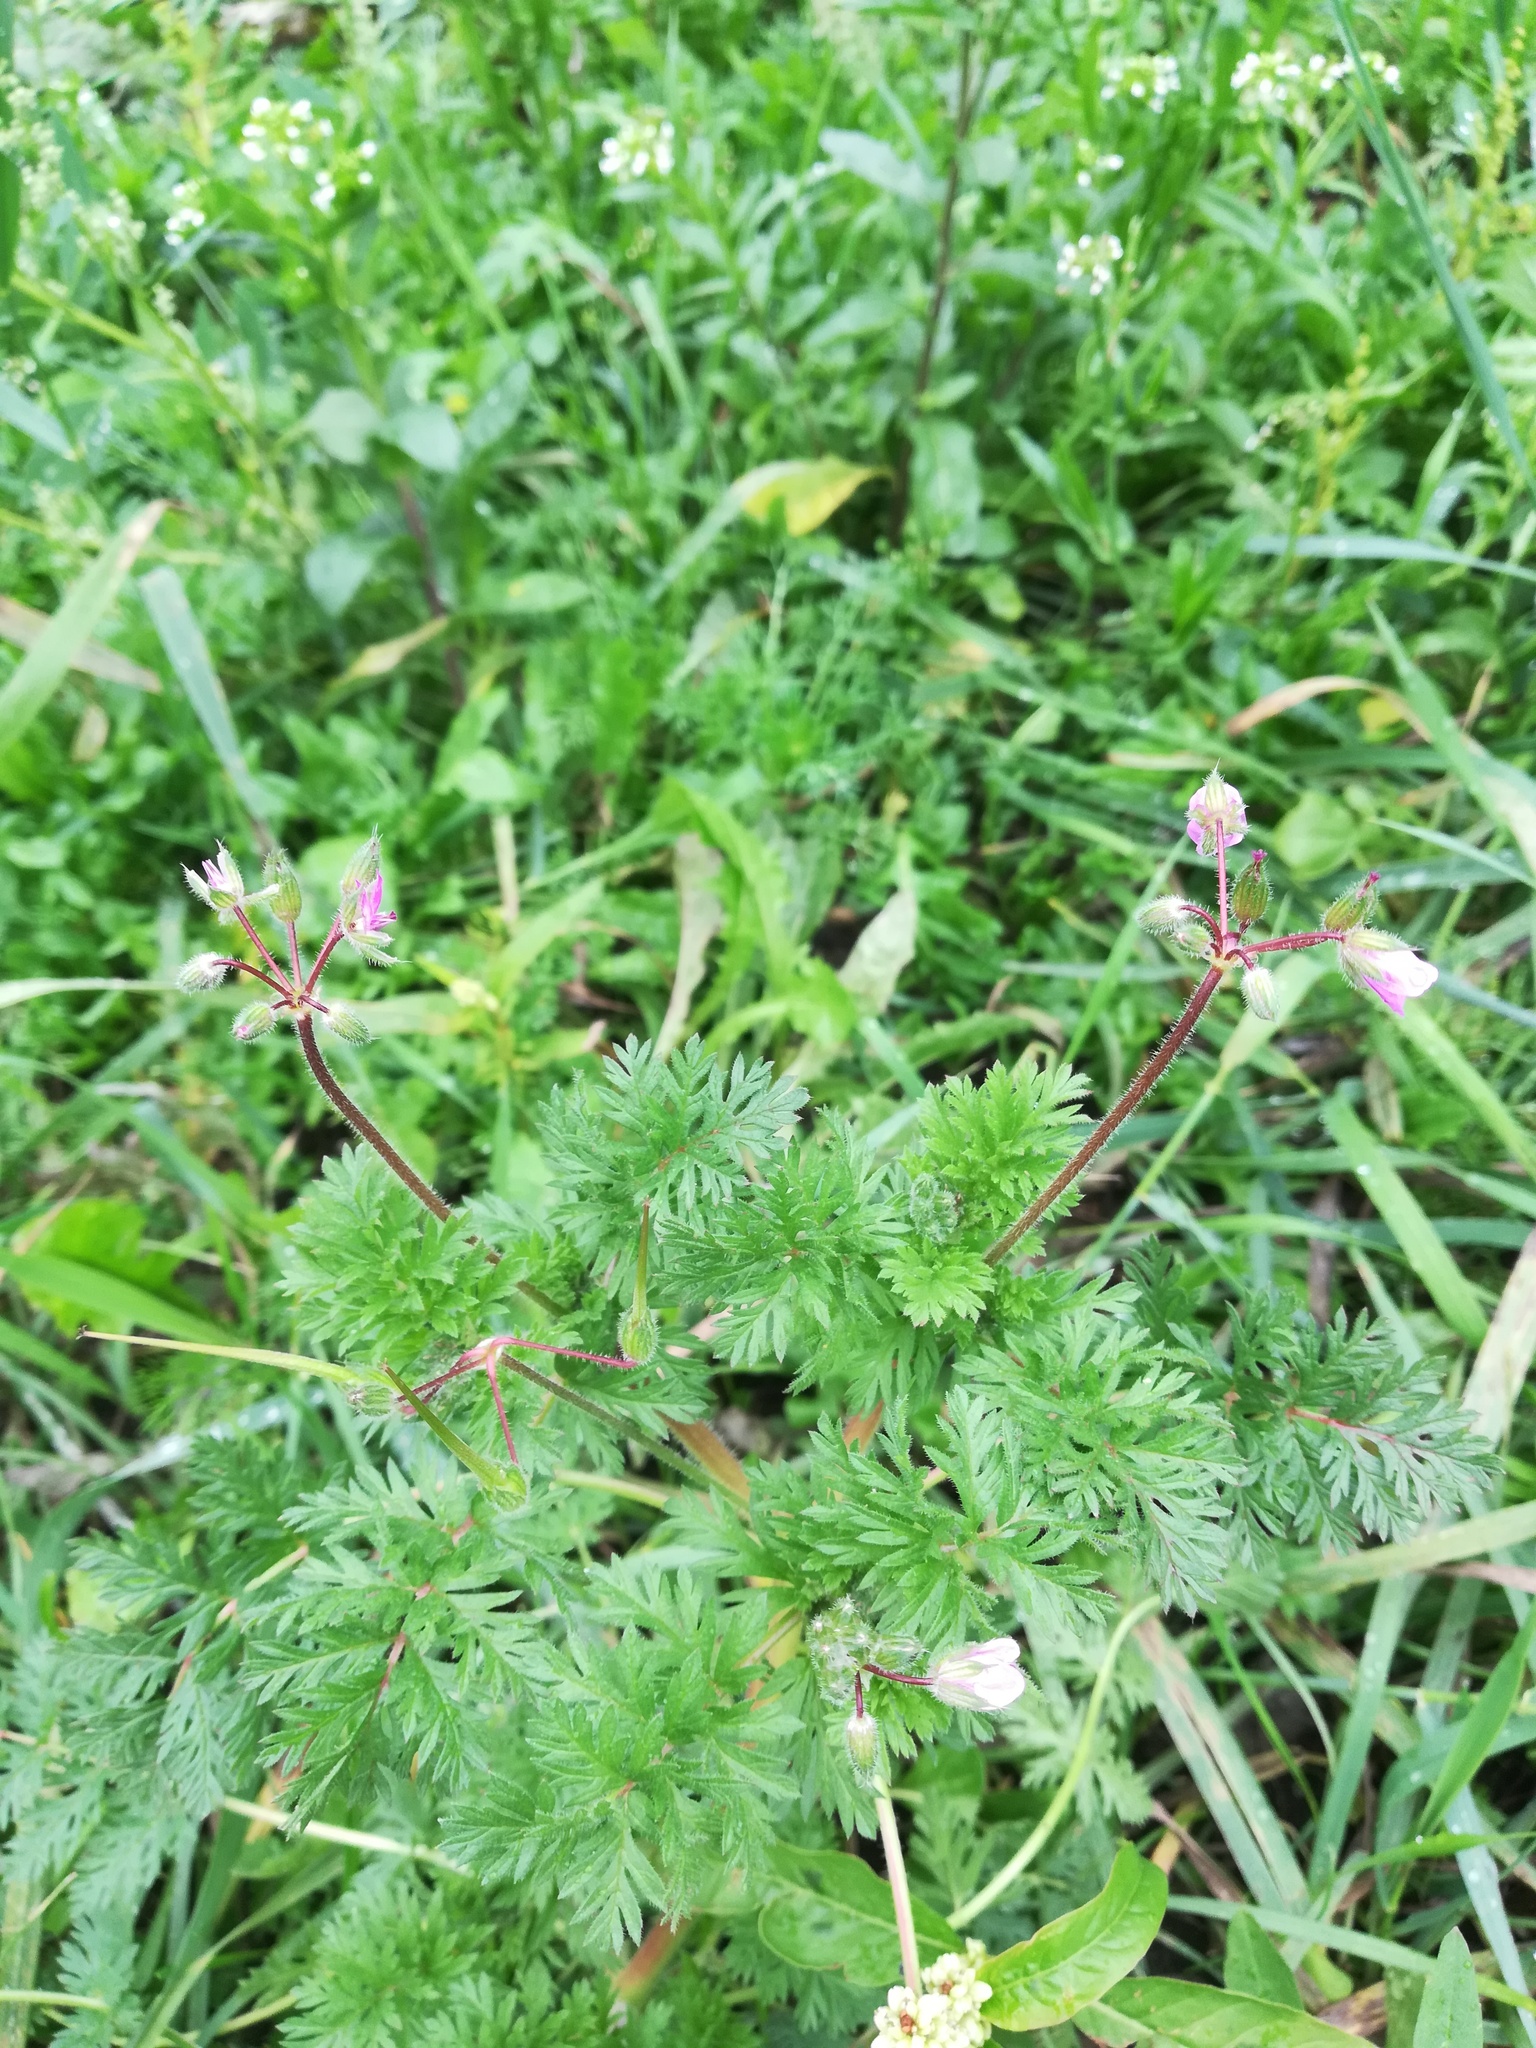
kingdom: Plantae
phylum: Tracheophyta
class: Magnoliopsida
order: Geraniales
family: Geraniaceae
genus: Erodium
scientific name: Erodium cicutarium
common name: Common stork's-bill
